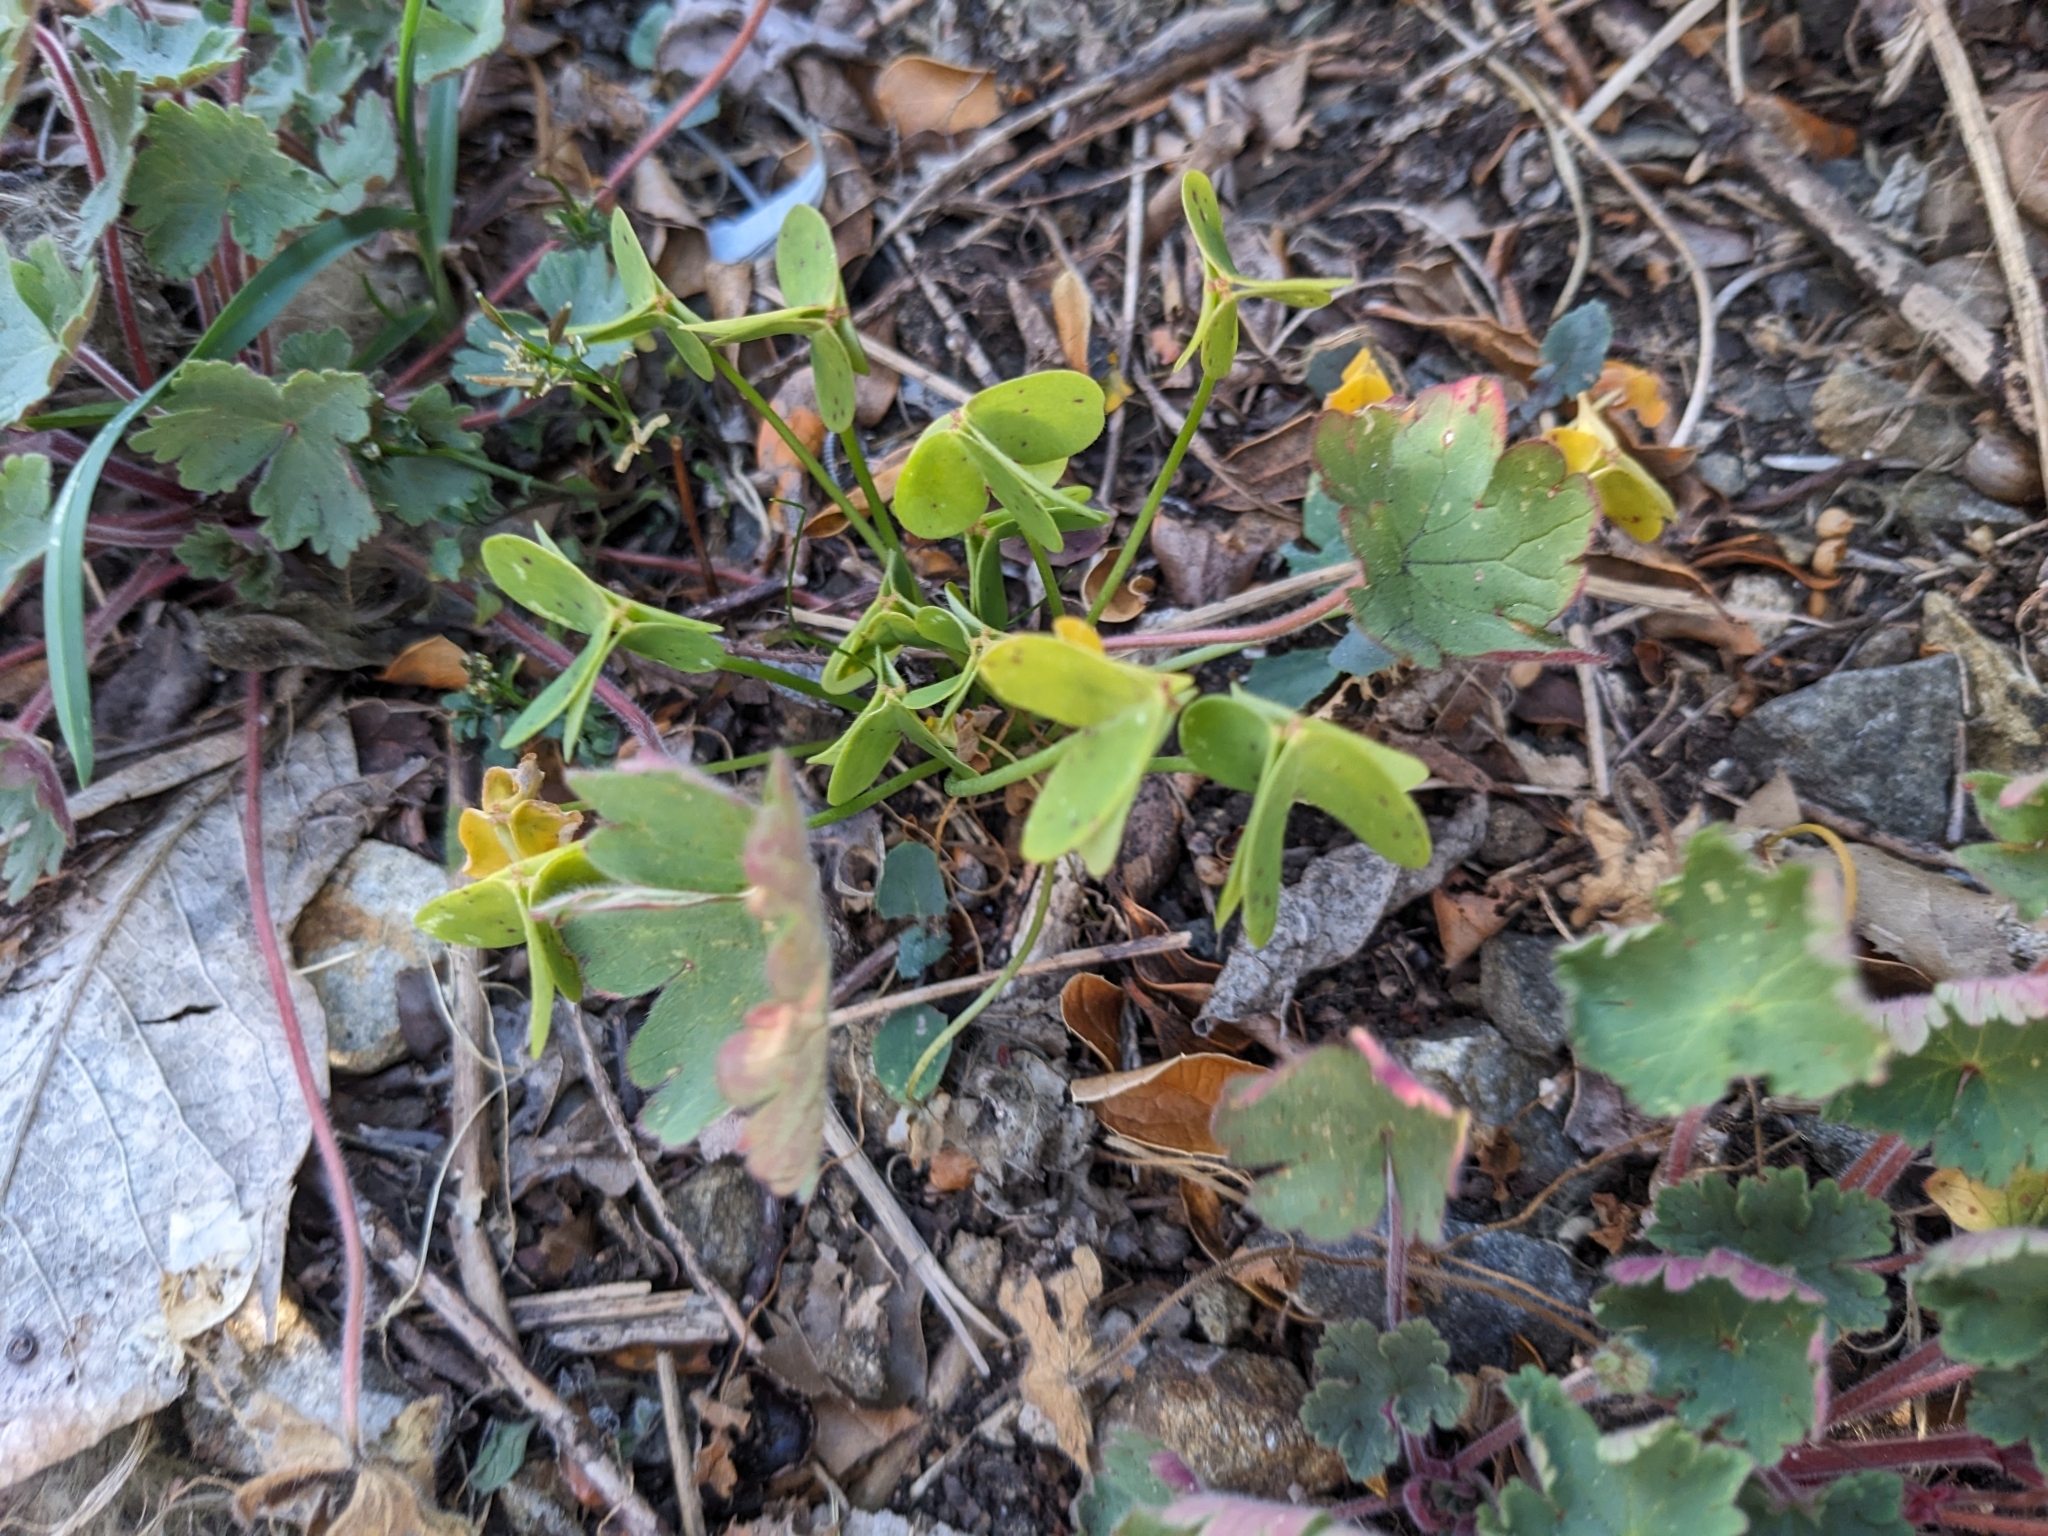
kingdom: Plantae
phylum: Tracheophyta
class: Magnoliopsida
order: Oxalidales
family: Oxalidaceae
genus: Oxalis
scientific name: Oxalis pes-caprae
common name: Bermuda-buttercup
